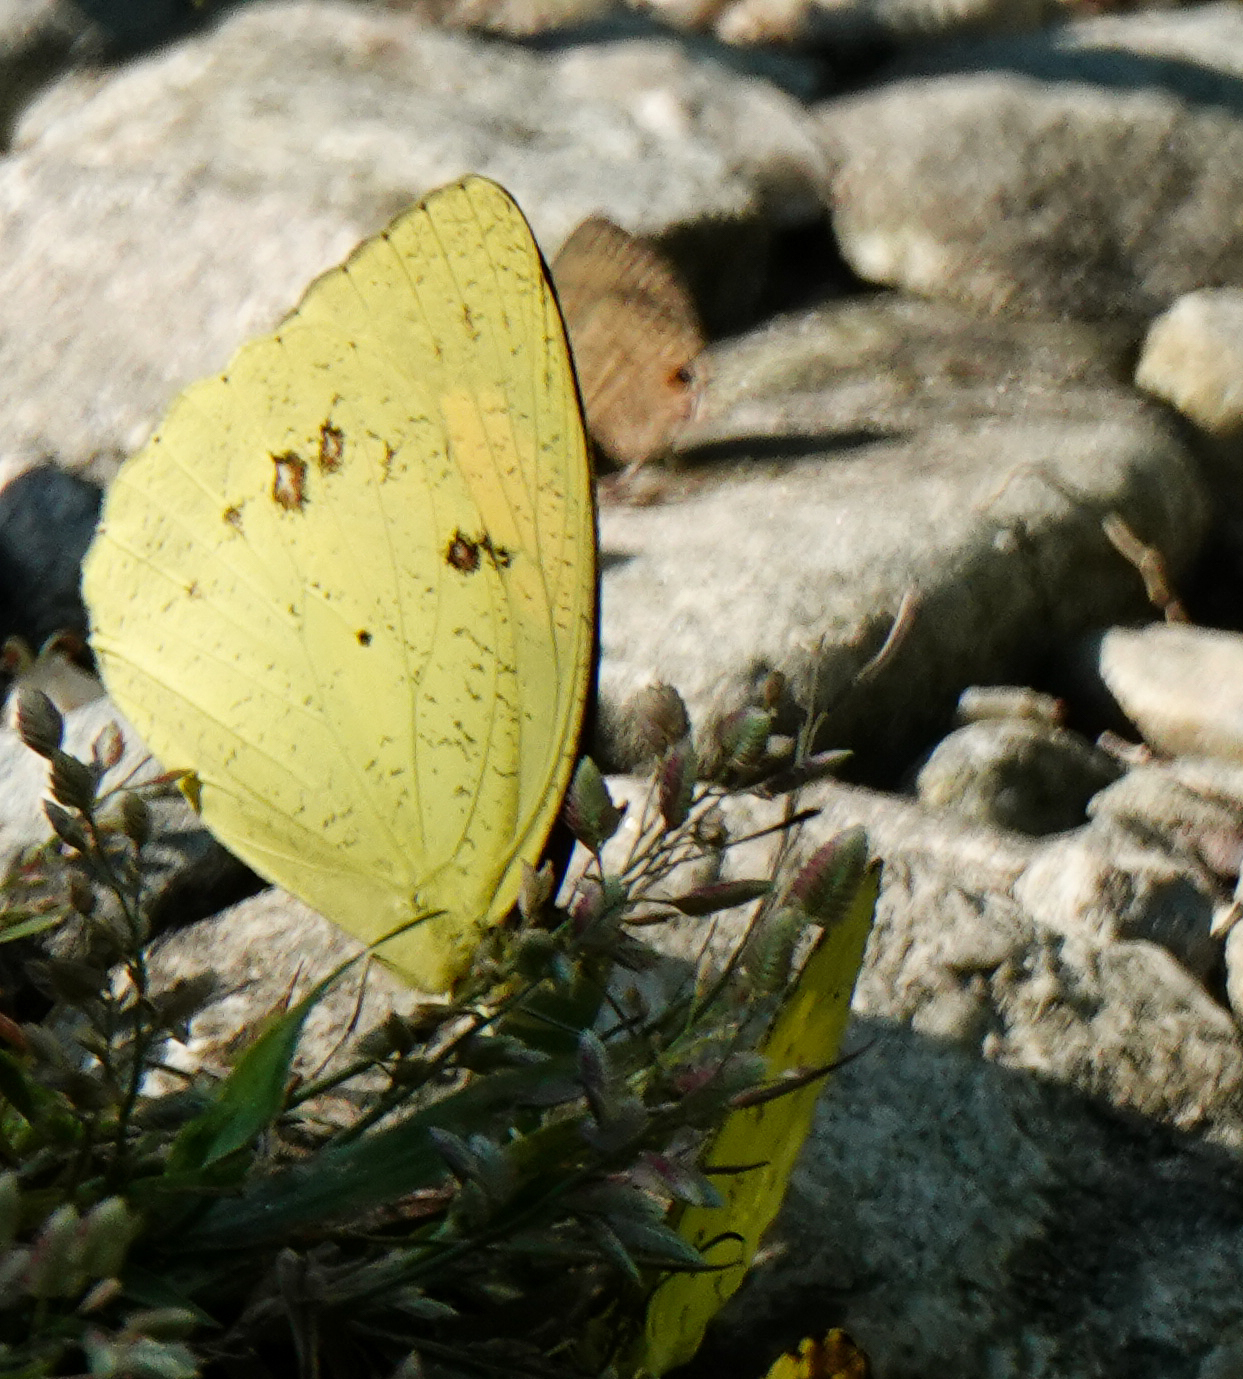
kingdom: Animalia
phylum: Arthropoda
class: Insecta
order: Lepidoptera
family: Pieridae
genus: Ixias
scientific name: Ixias pyrene
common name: Yellow orange tip
